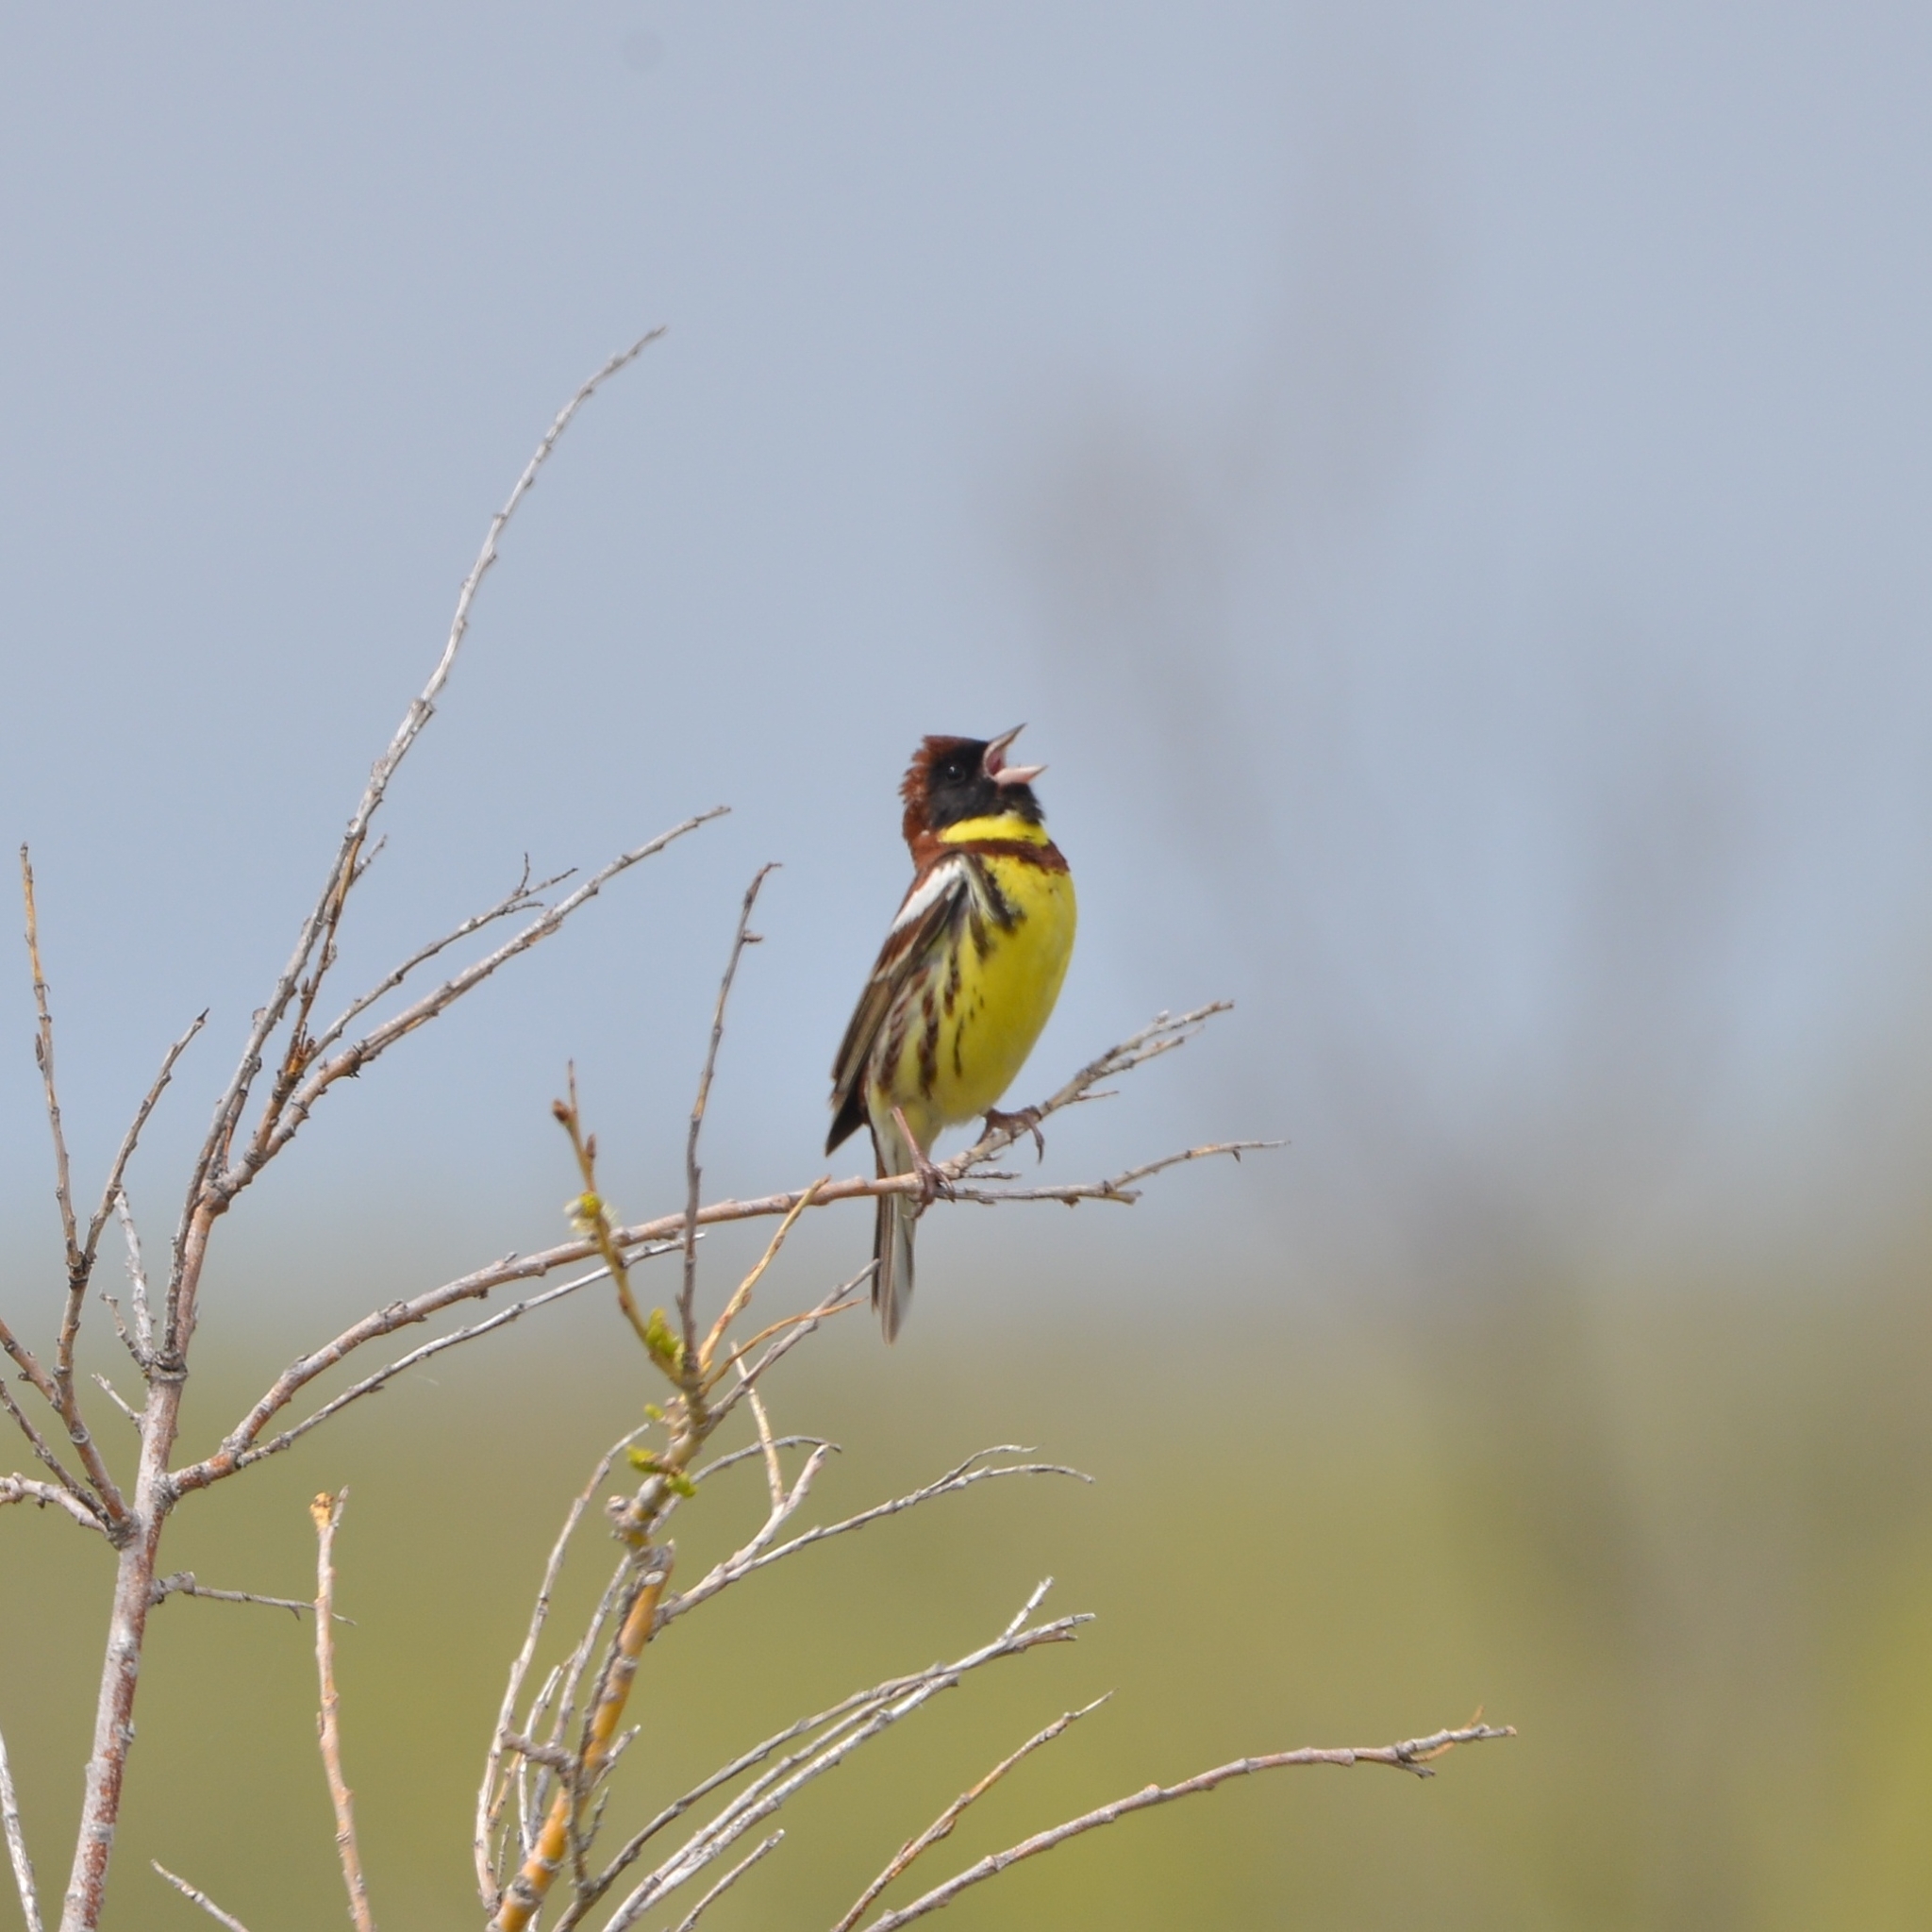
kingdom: Animalia
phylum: Chordata
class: Aves
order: Passeriformes
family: Emberizidae
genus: Emberiza
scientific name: Emberiza aureola
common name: Yellow-breasted bunting
